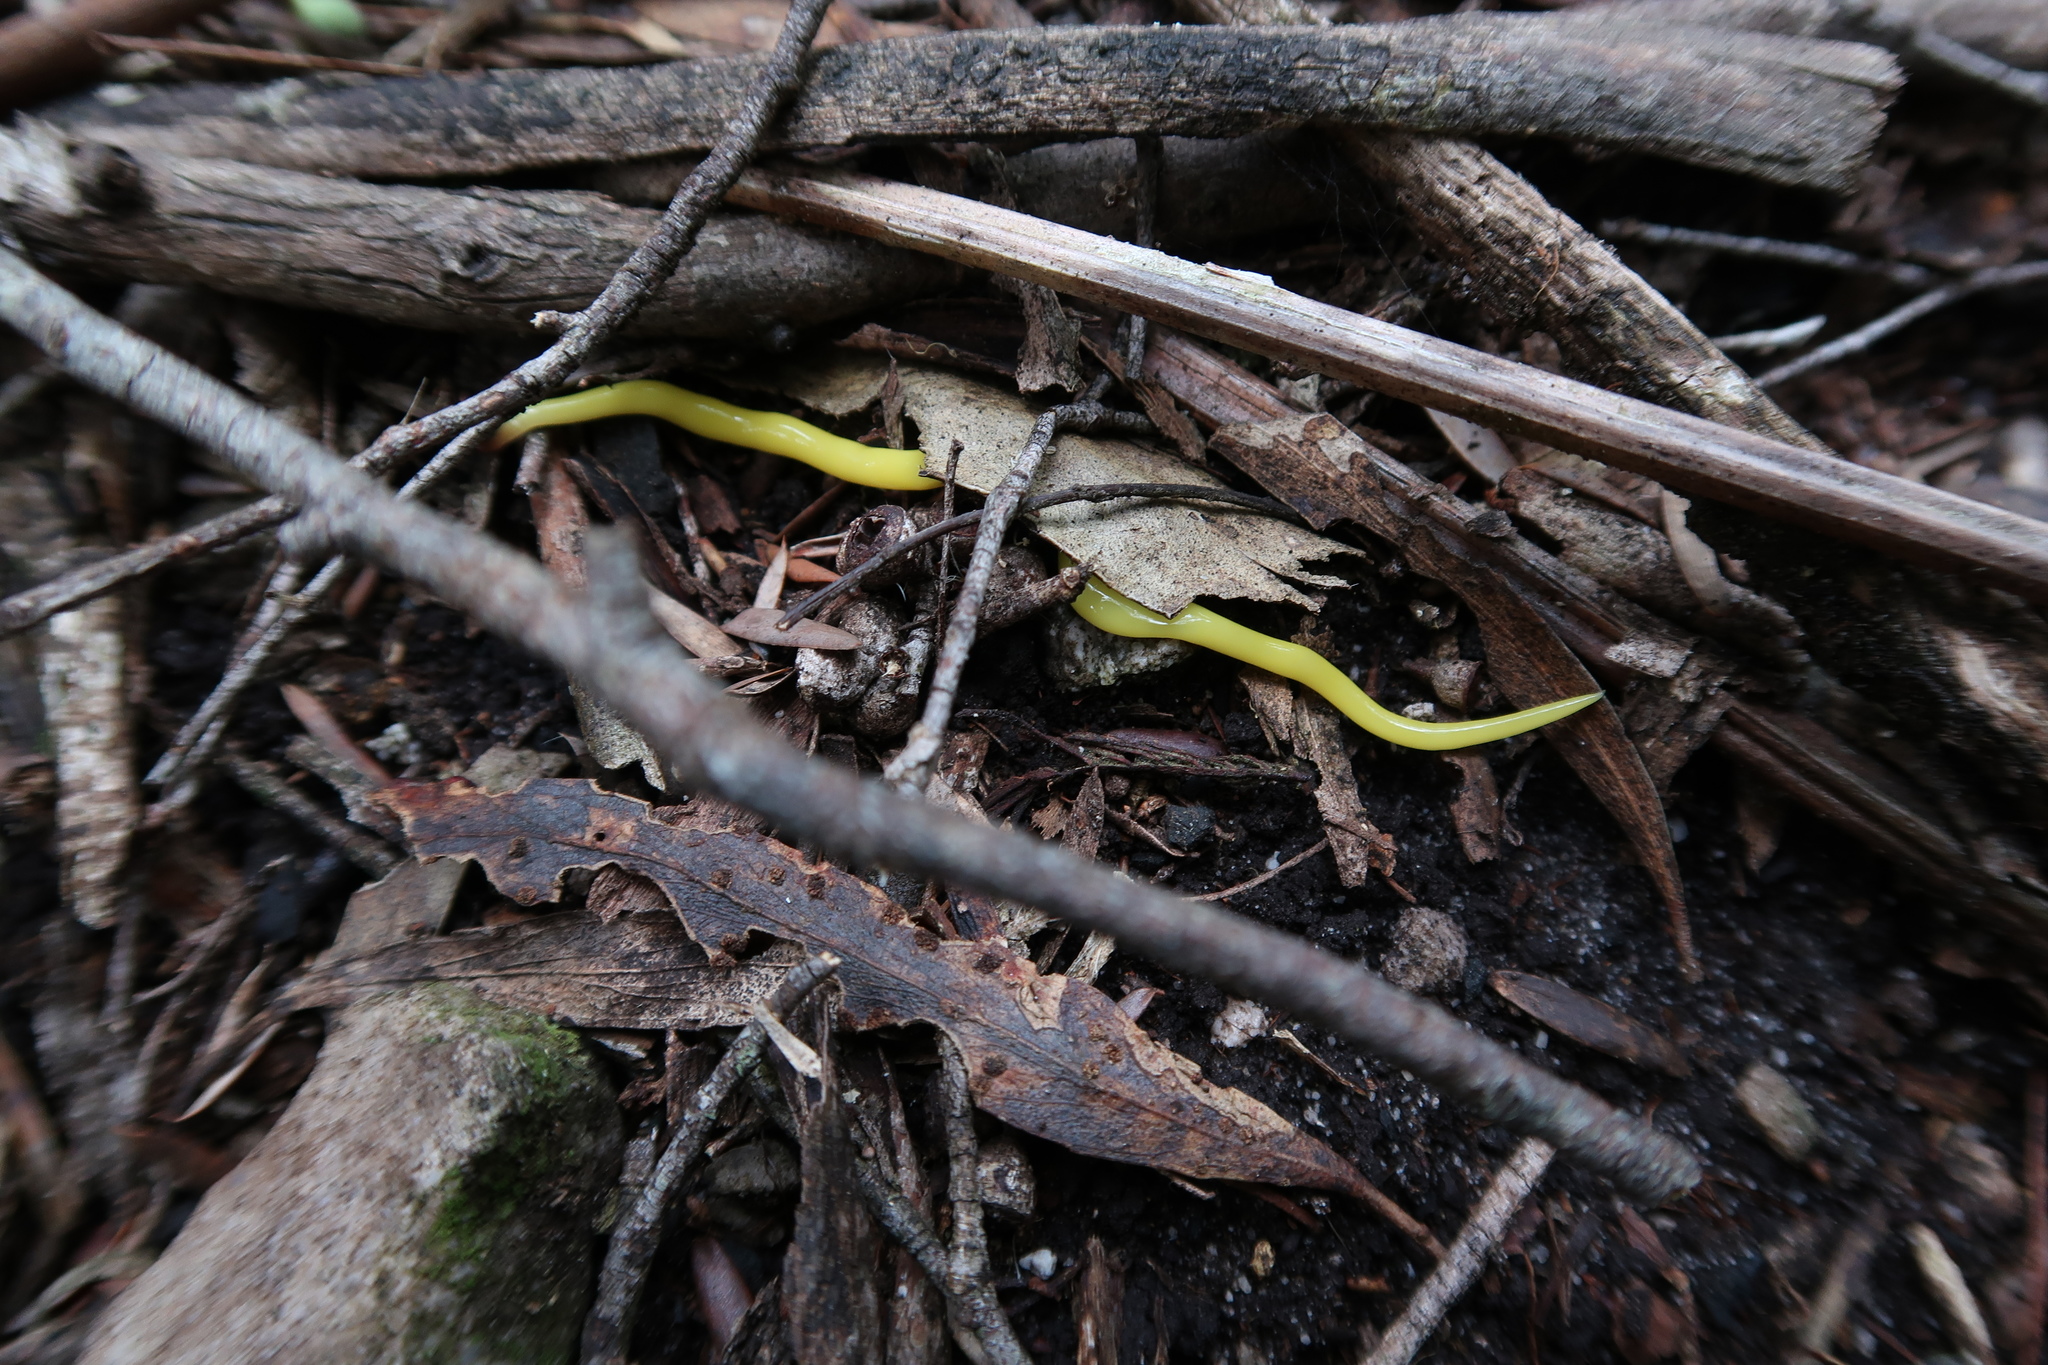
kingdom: Animalia
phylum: Platyhelminthes
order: Tricladida
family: Geoplanidae
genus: Fletchamia
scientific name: Fletchamia sugdeni
